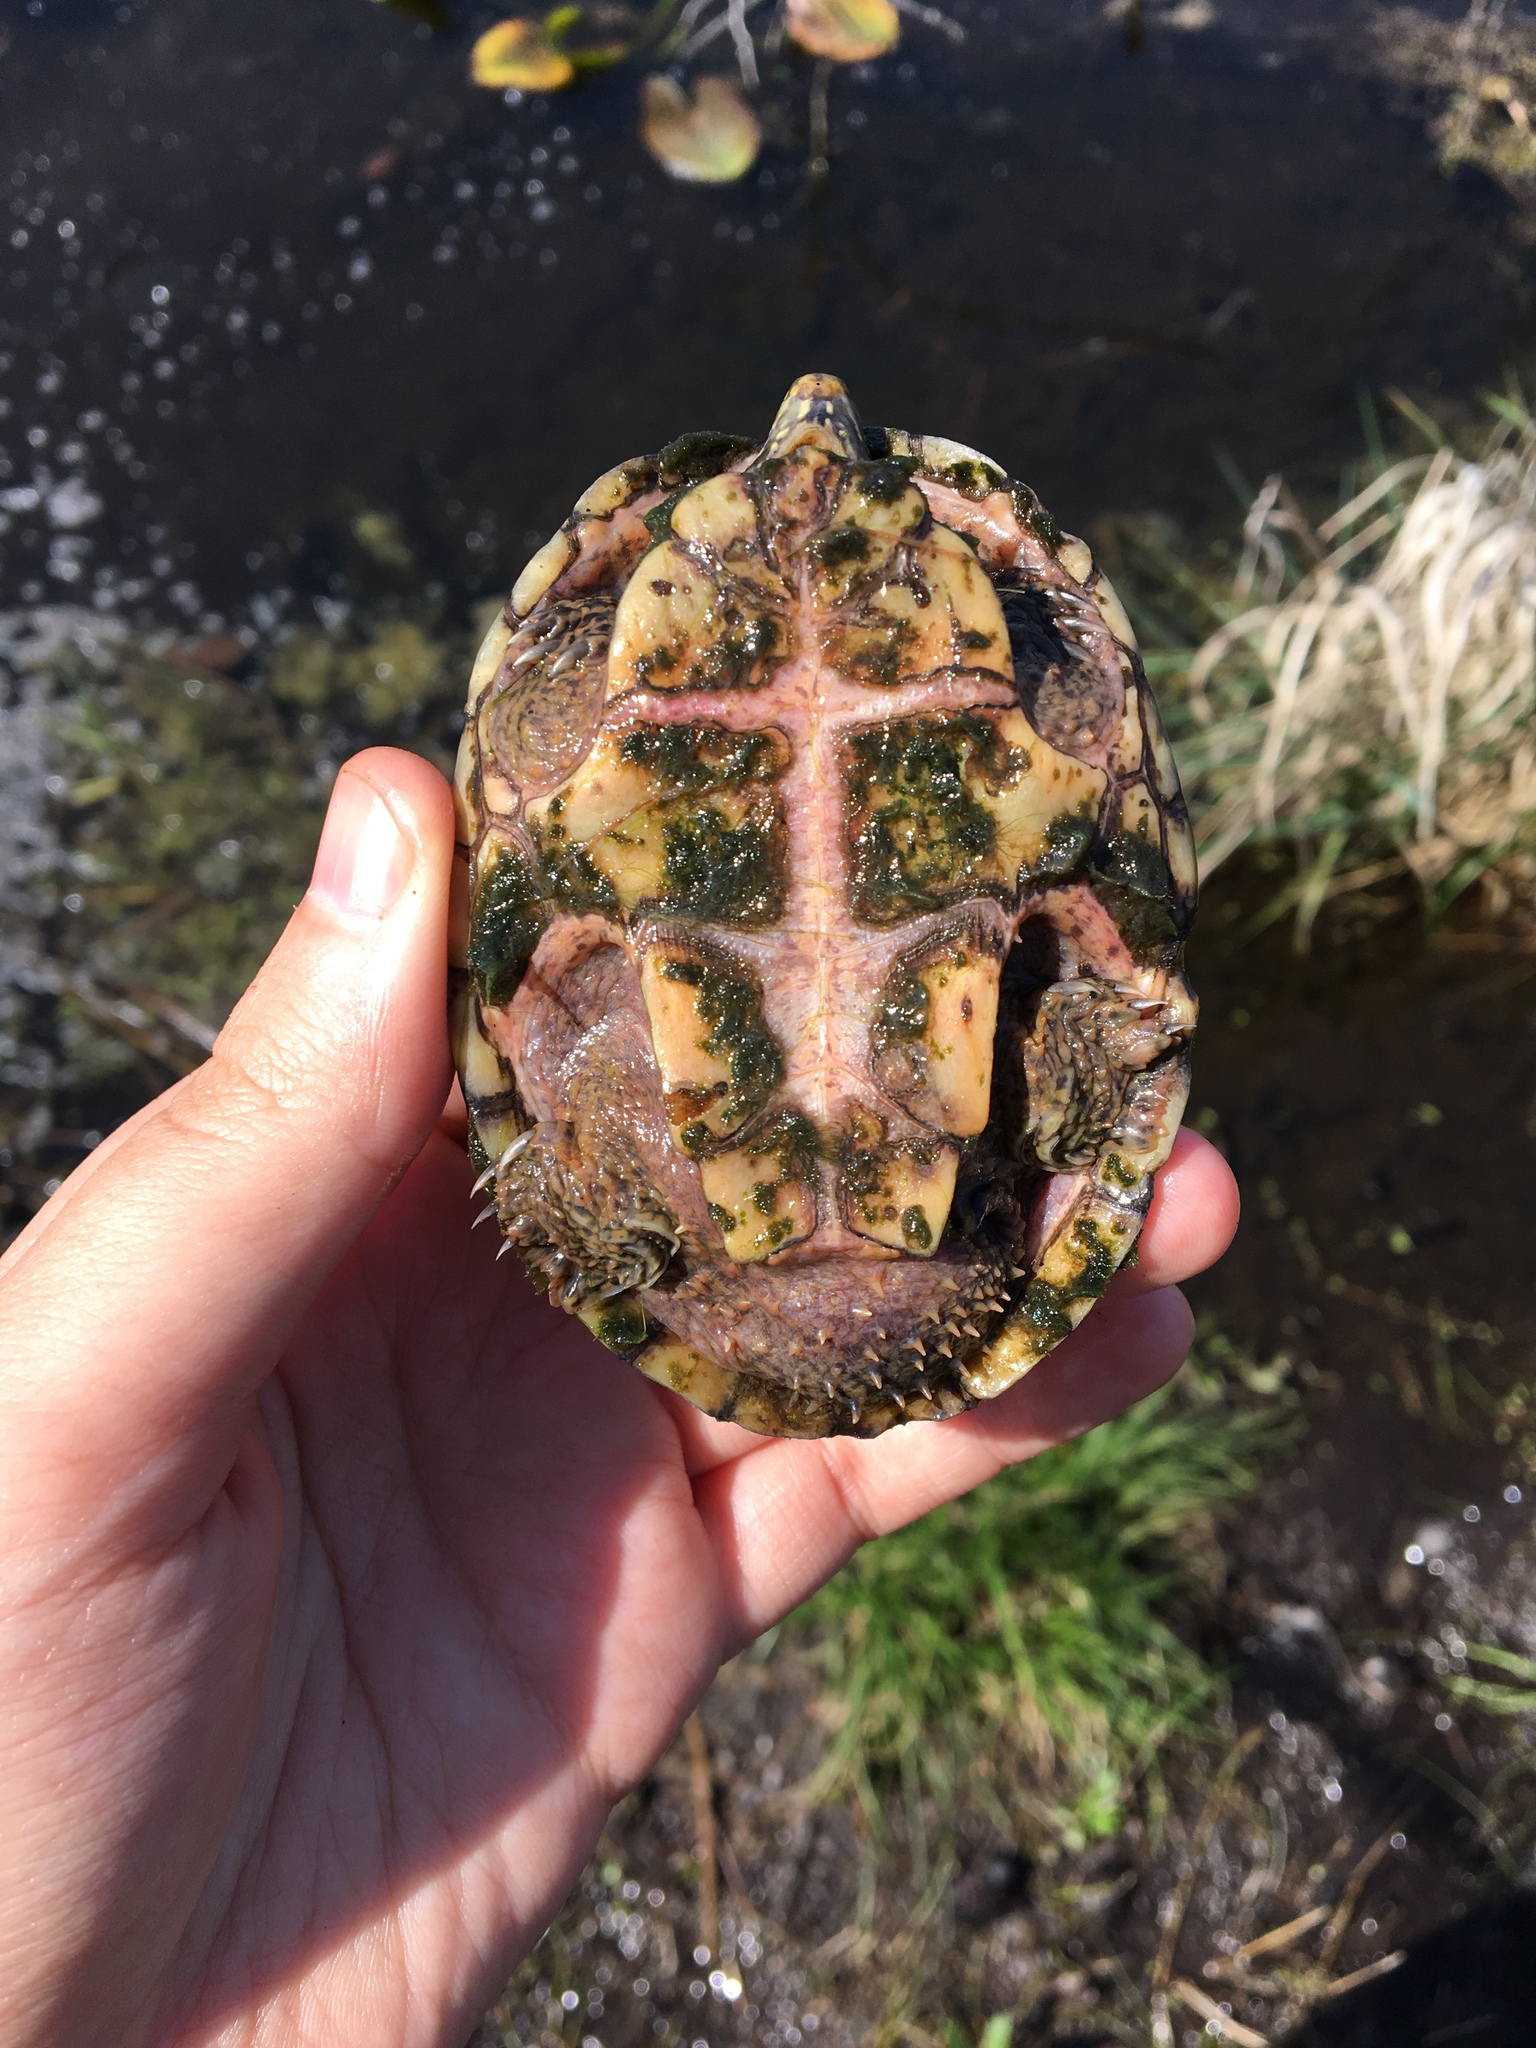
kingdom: Animalia
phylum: Chordata
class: Testudines
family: Kinosternidae
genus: Sternotherus
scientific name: Sternotherus odoratus
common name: Common musk turtle
